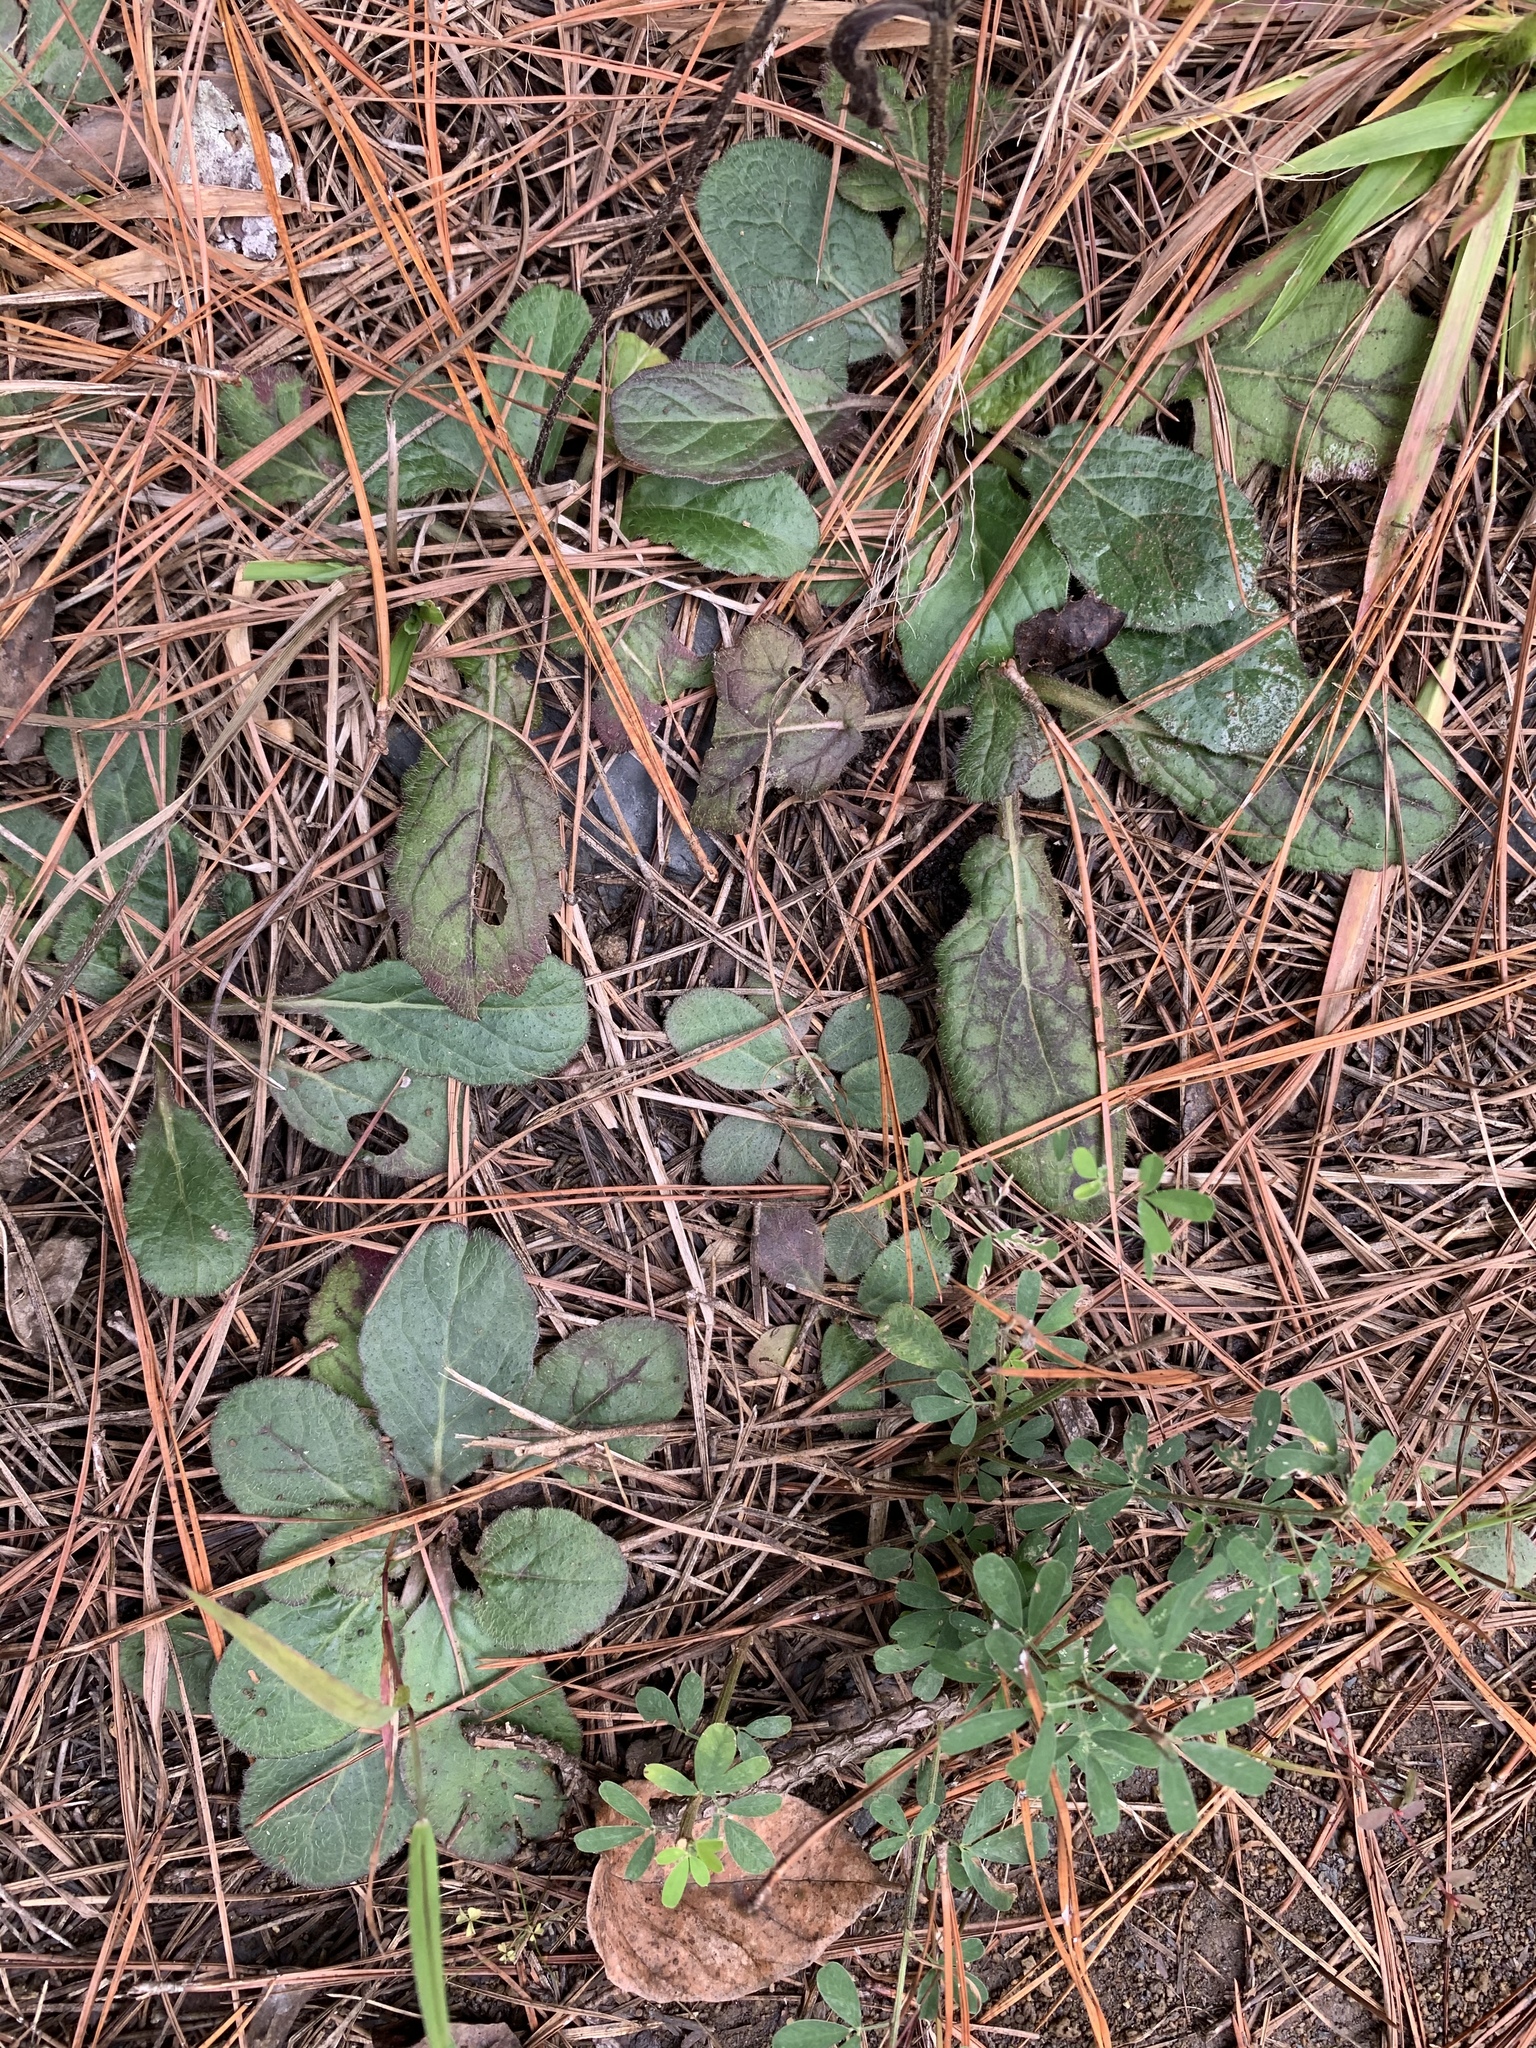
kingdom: Plantae
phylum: Tracheophyta
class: Magnoliopsida
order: Lamiales
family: Lamiaceae
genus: Salvia
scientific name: Salvia lyrata
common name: Cancerweed
